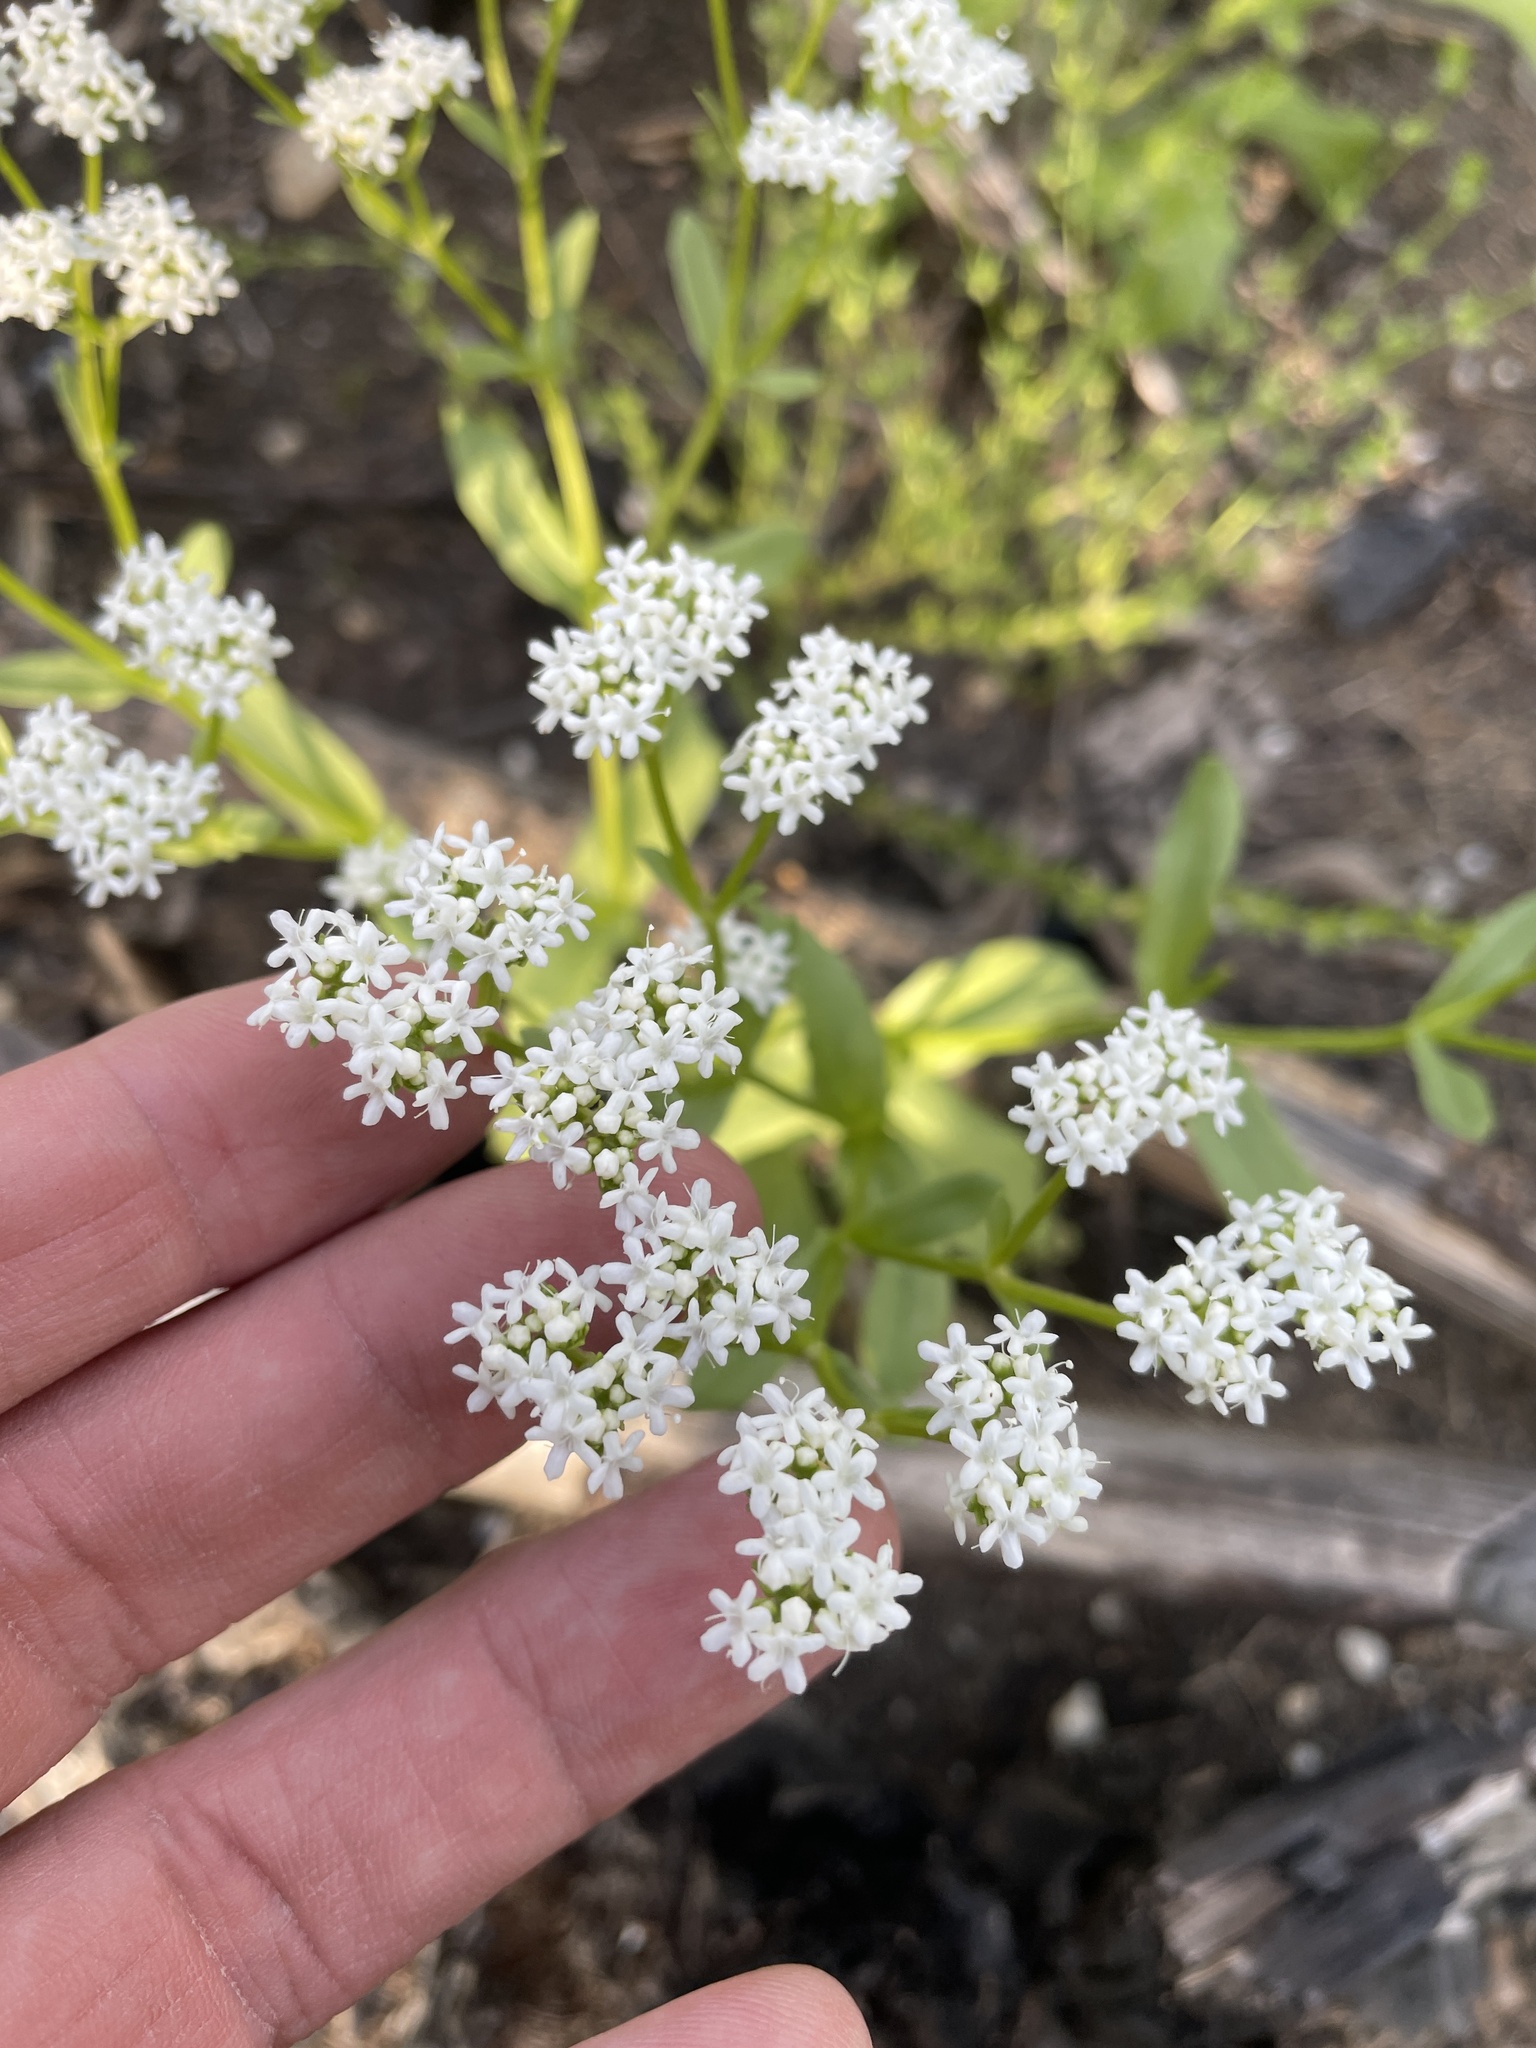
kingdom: Plantae
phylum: Tracheophyta
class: Magnoliopsida
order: Dipsacales
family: Caprifoliaceae
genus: Valerianella
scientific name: Valerianella amarella
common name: Hariy cornsalad
